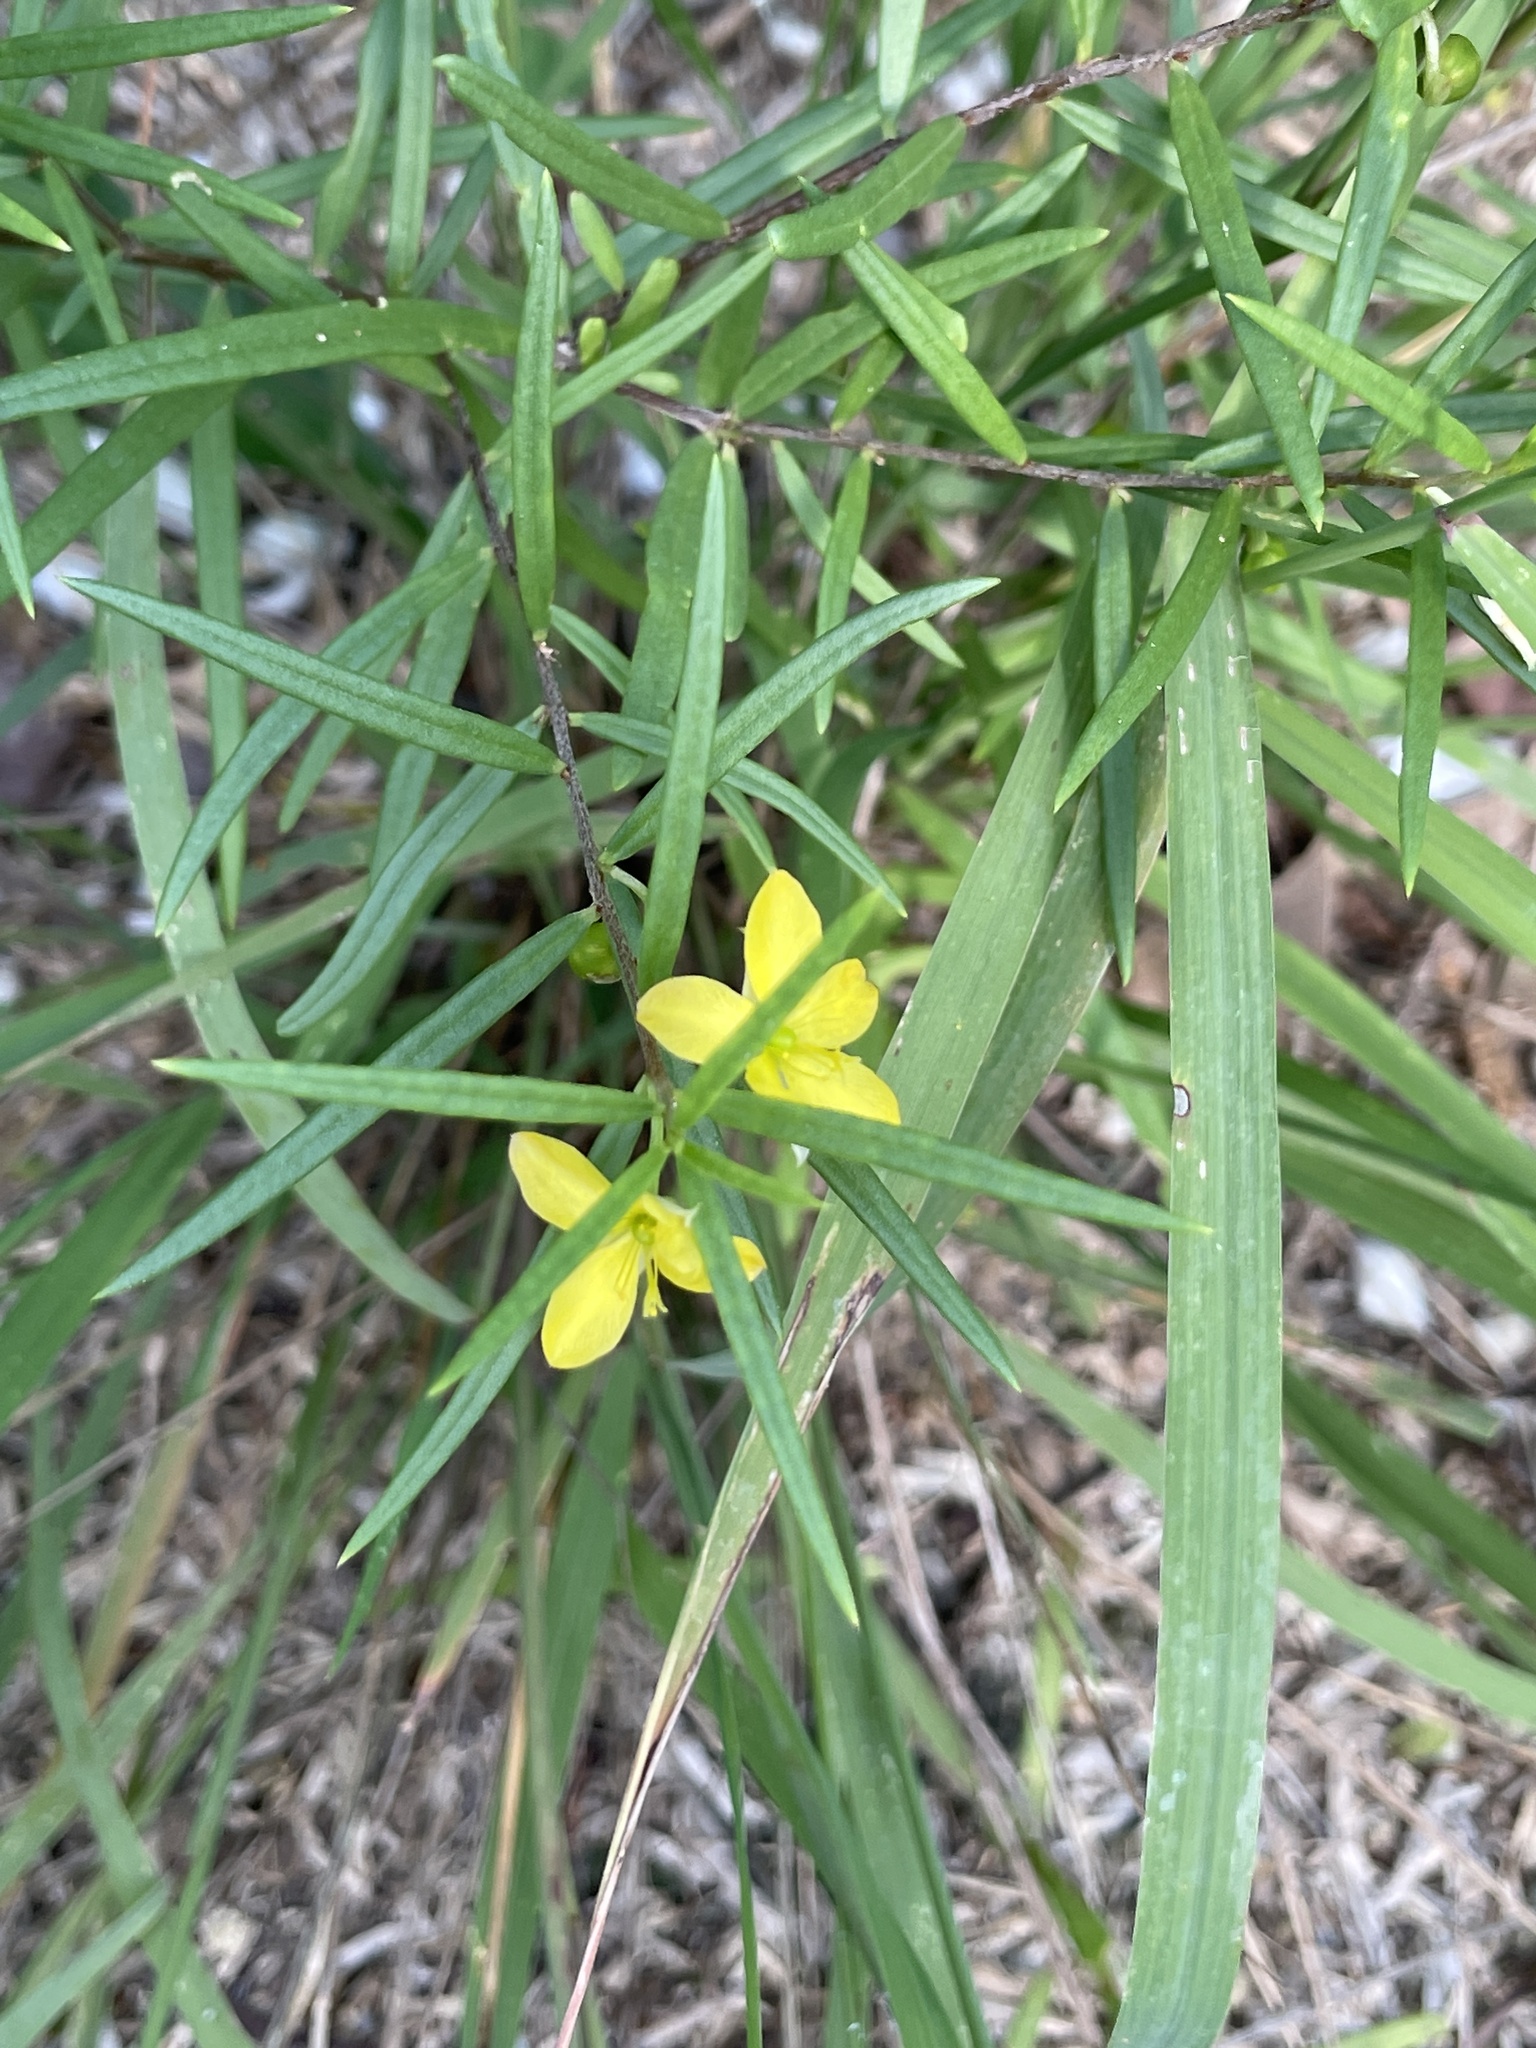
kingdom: Plantae
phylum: Tracheophyta
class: Magnoliopsida
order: Caryophyllales
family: Talinaceae
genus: Talinum
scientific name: Talinum polygaloides
